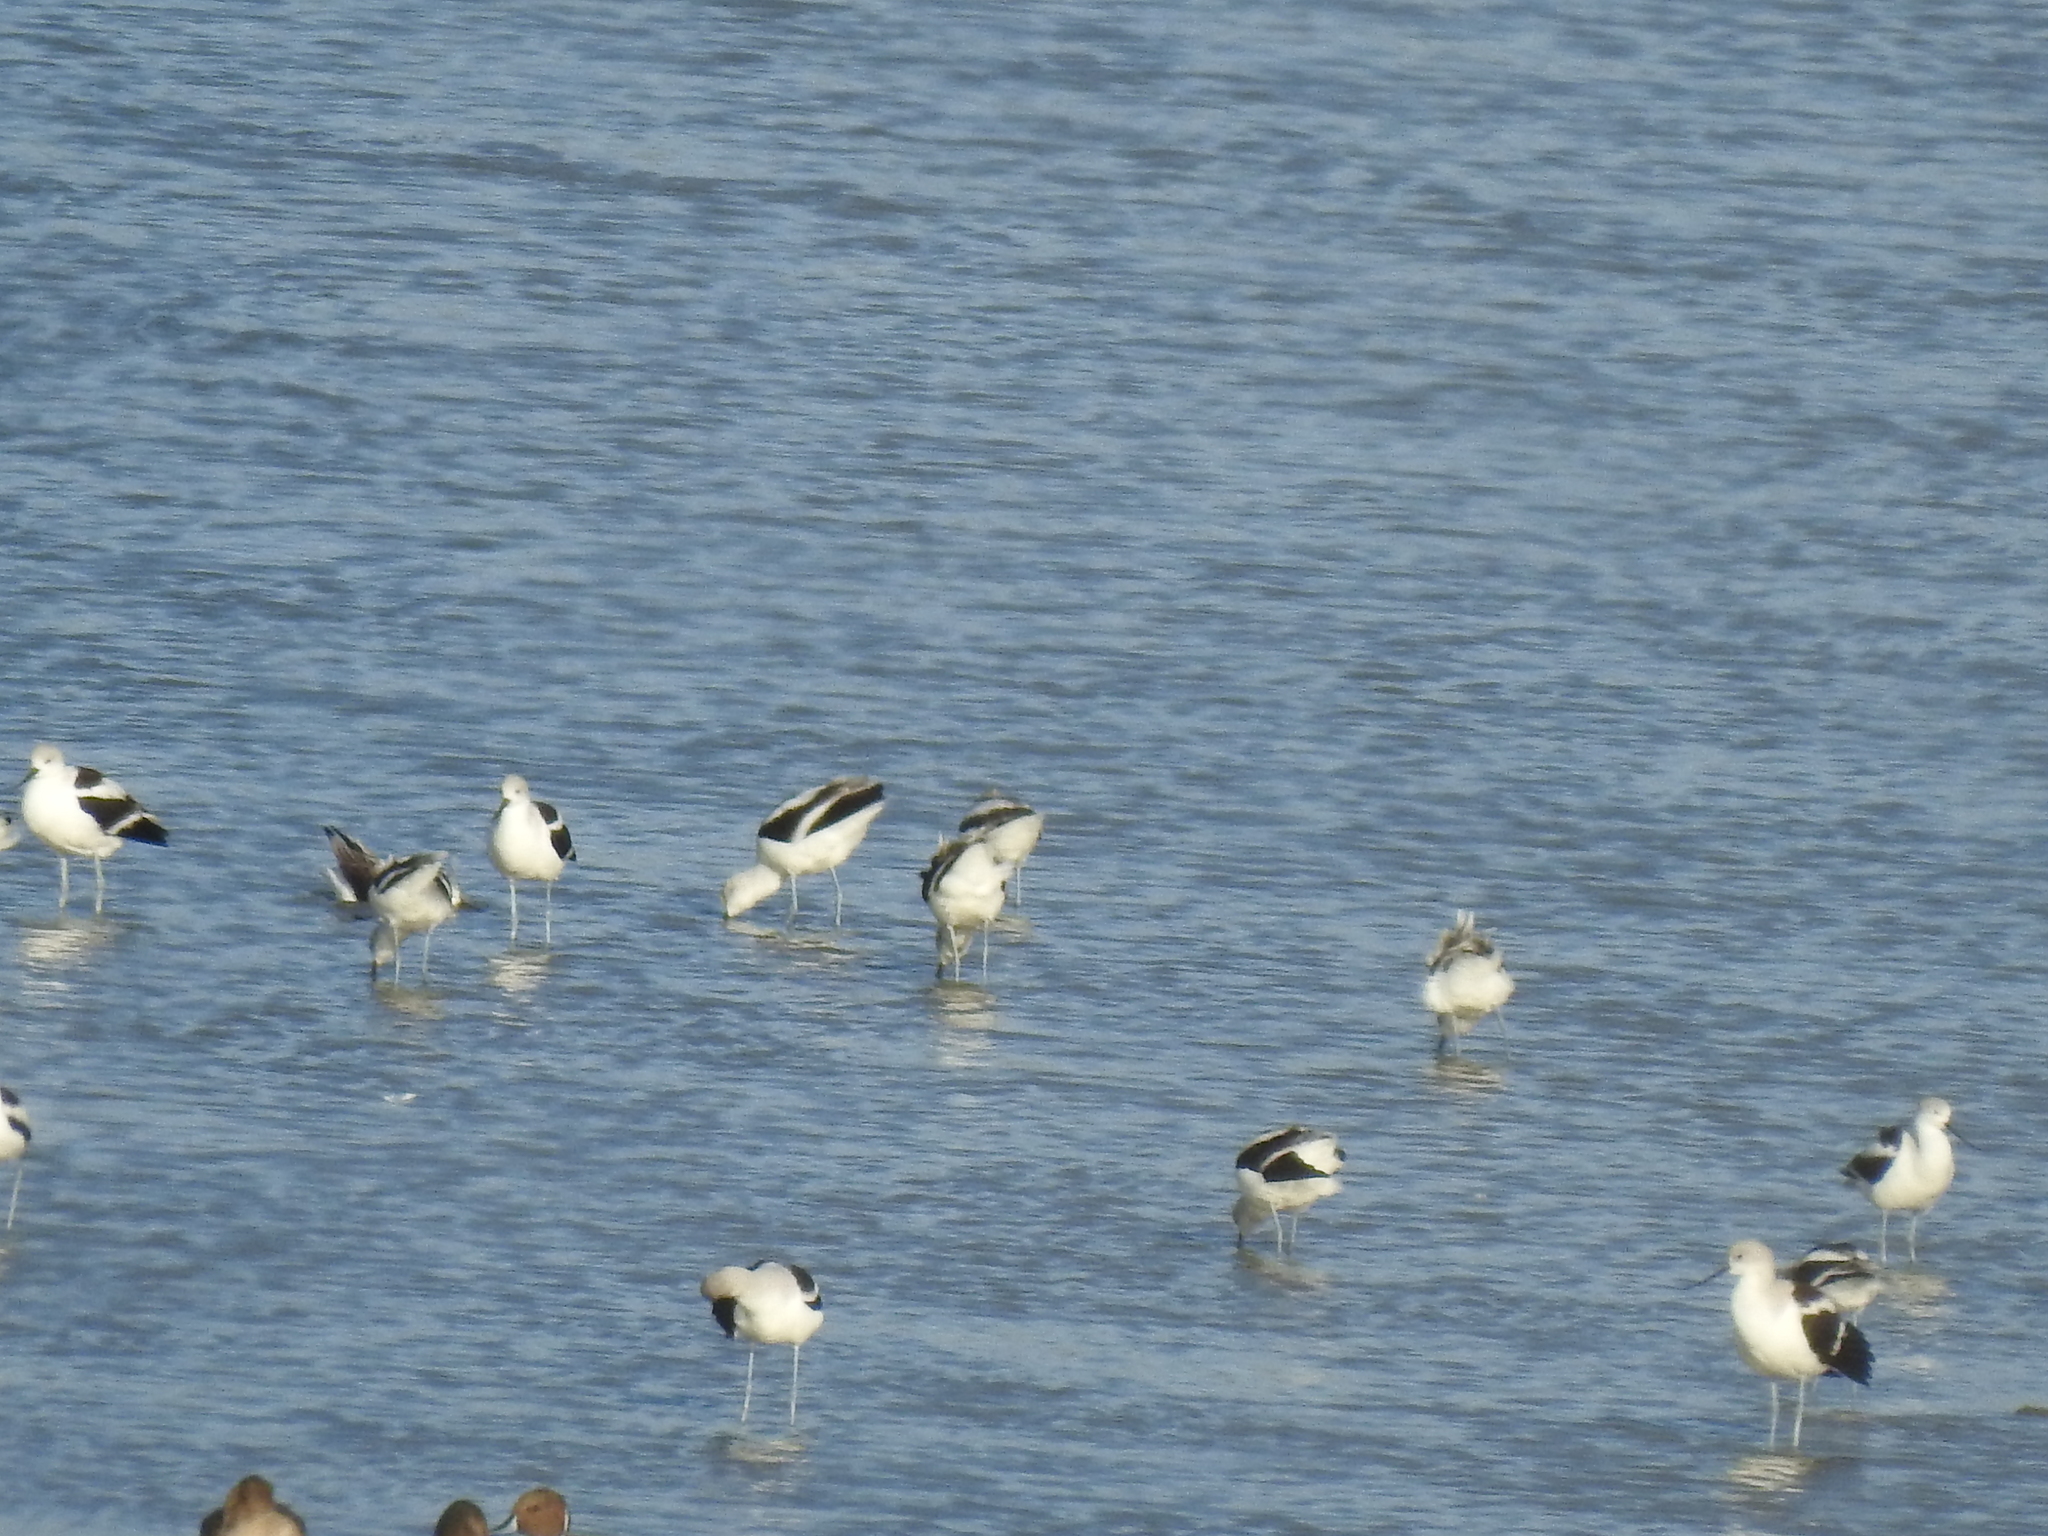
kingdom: Animalia
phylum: Chordata
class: Aves
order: Charadriiformes
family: Recurvirostridae
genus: Recurvirostra
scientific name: Recurvirostra americana
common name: American avocet
